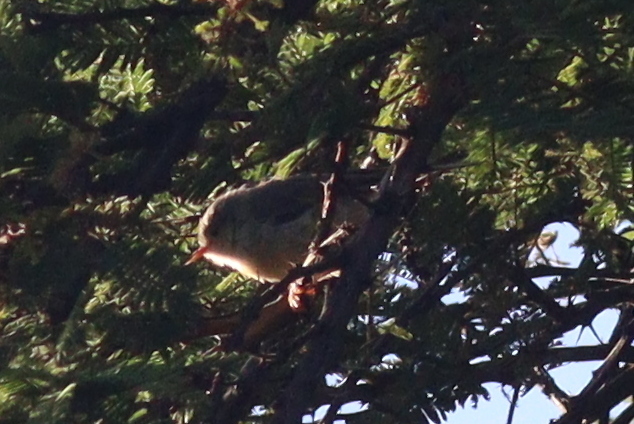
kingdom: Animalia
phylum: Chordata
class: Aves
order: Passeriformes
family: Cisticolidae
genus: Phyllolais
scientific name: Phyllolais pulchella
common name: Buff-bellied warbler
